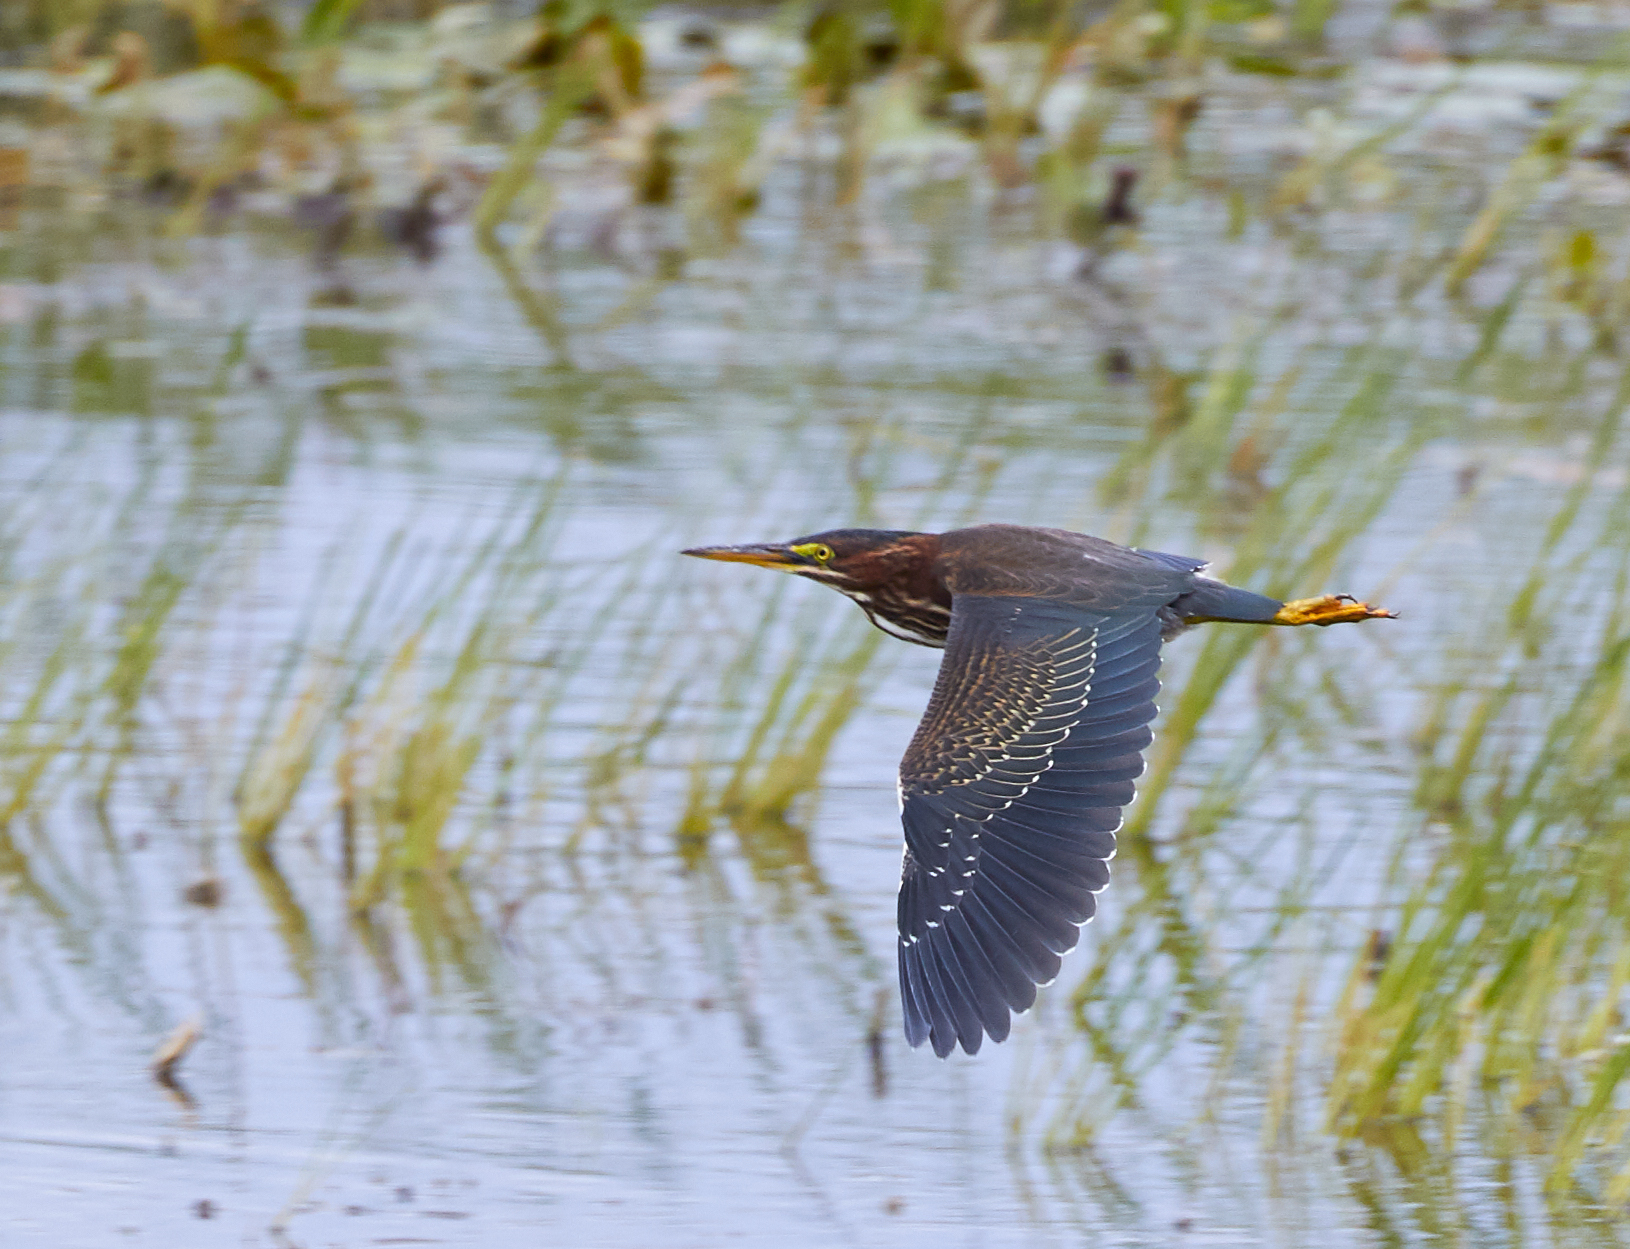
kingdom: Animalia
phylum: Chordata
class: Aves
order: Pelecaniformes
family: Ardeidae
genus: Butorides
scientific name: Butorides virescens
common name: Green heron
